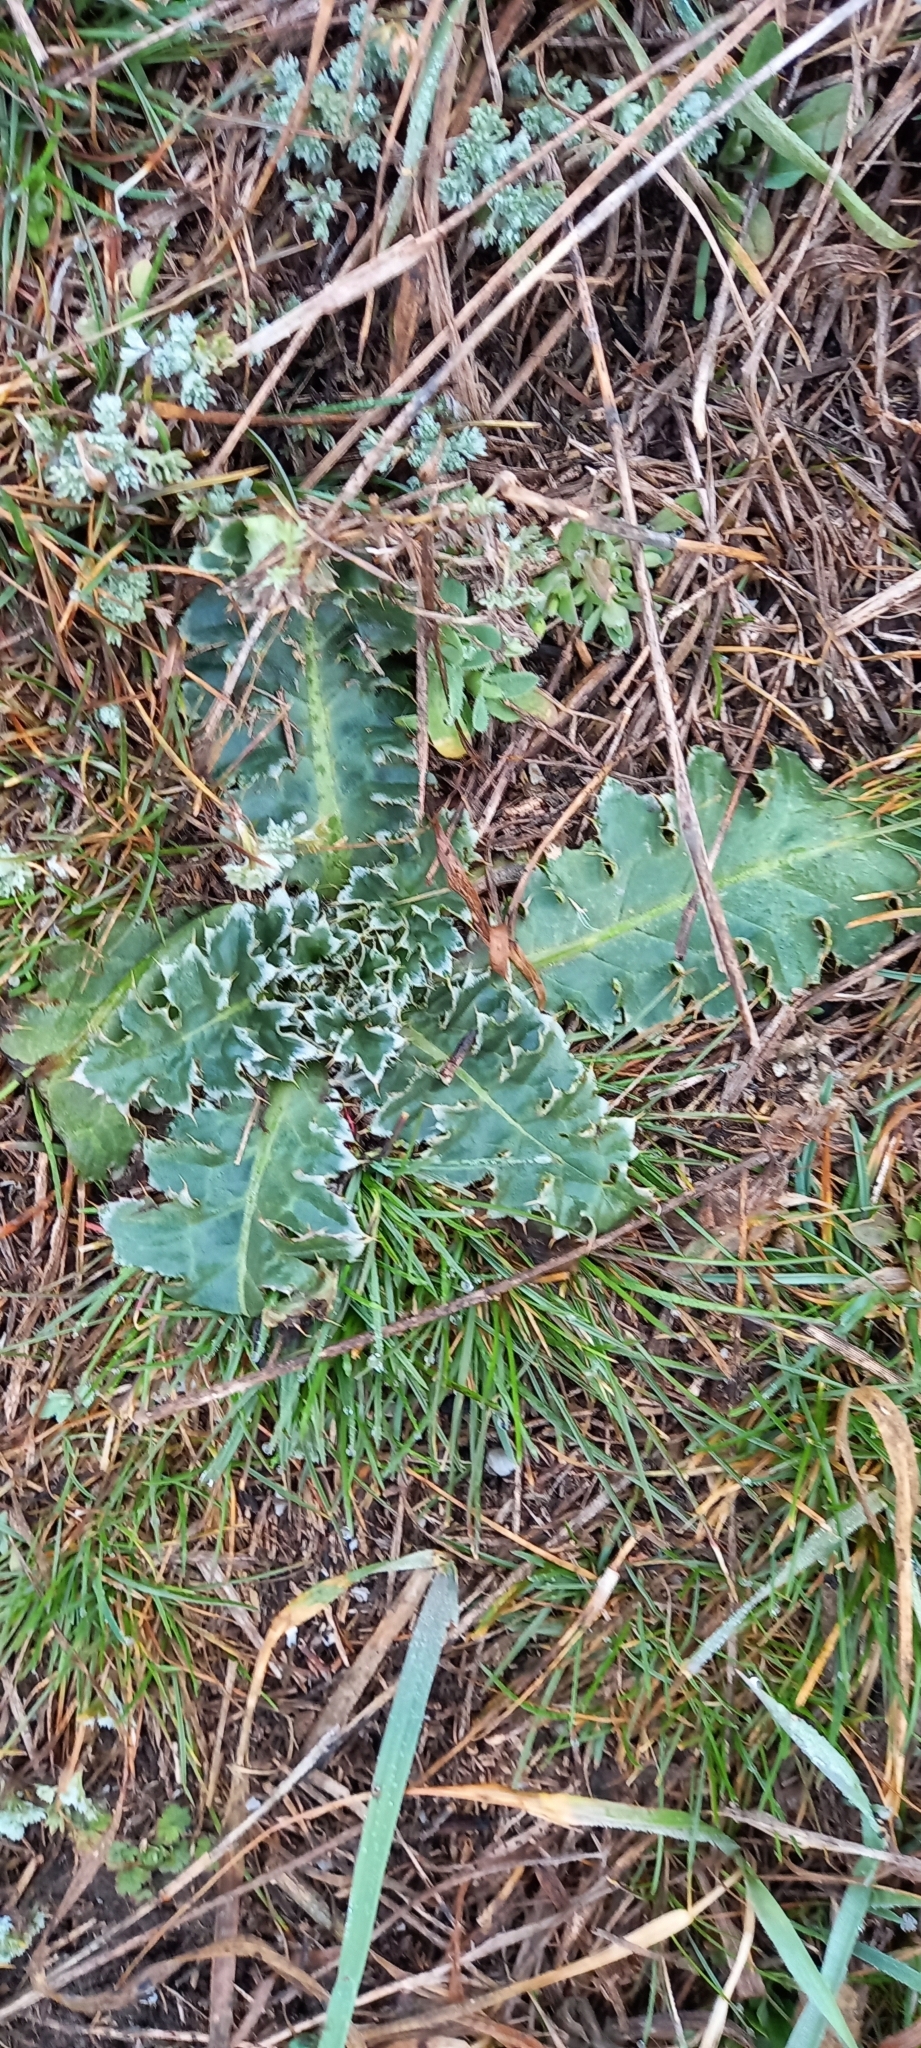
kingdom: Plantae
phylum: Tracheophyta
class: Magnoliopsida
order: Asterales
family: Asteraceae
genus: Carduus
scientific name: Carduus nutans
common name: Musk thistle
